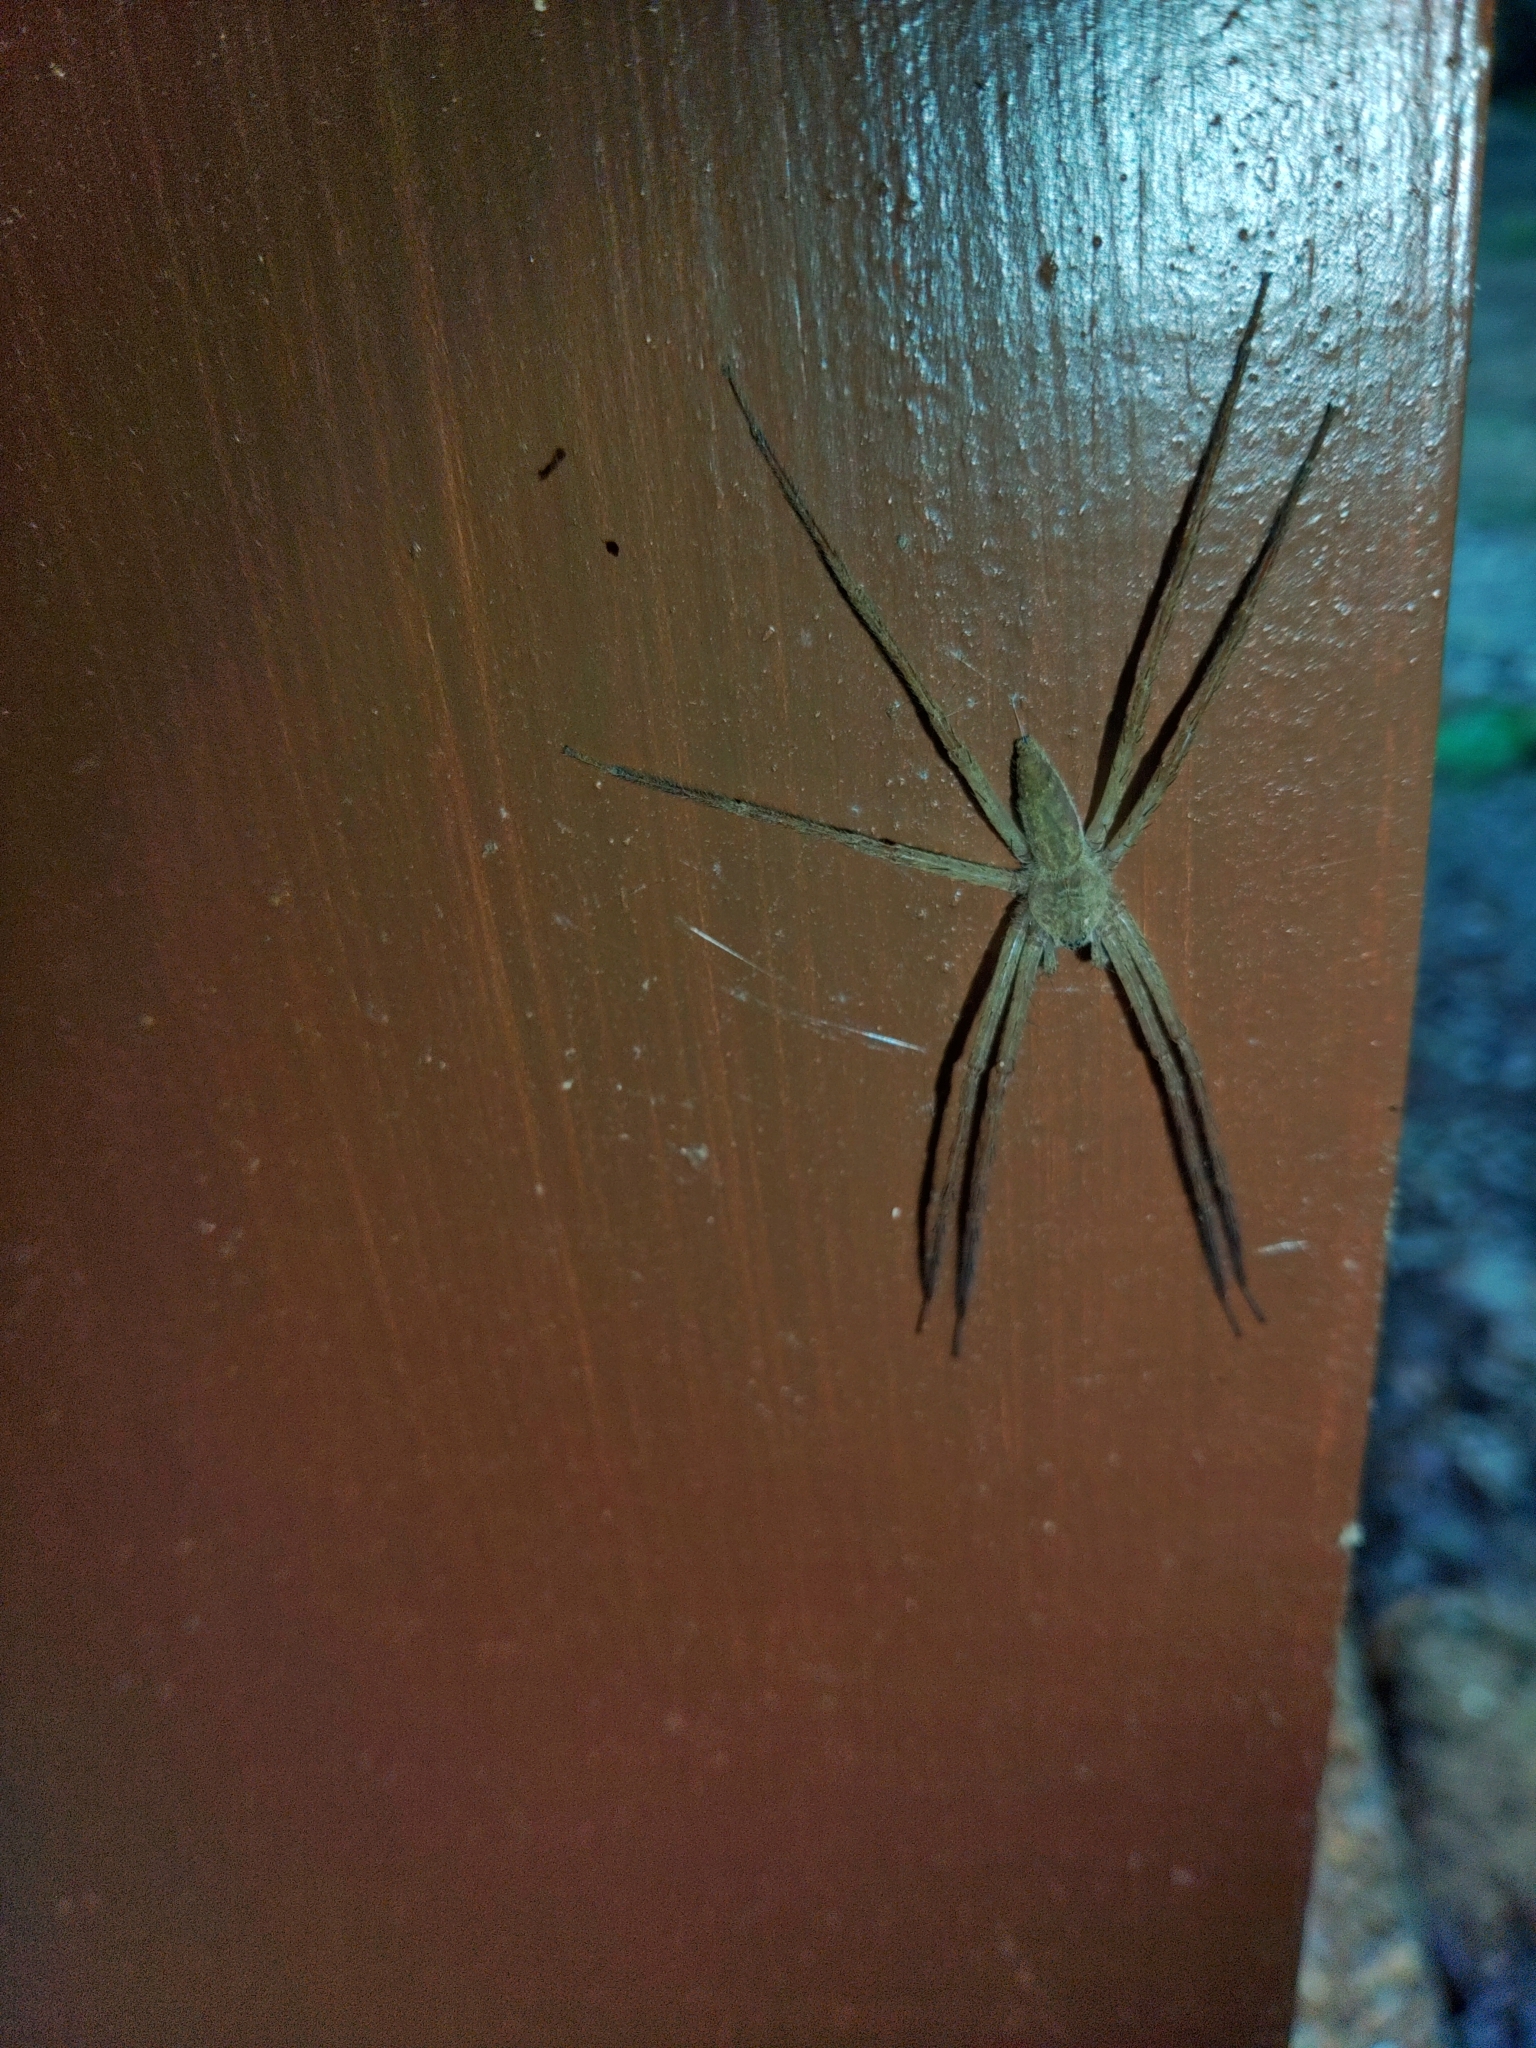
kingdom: Animalia
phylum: Arthropoda
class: Arachnida
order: Araneae
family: Pisauridae
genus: Pisaurina
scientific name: Pisaurina mira
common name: American nursery web spider
